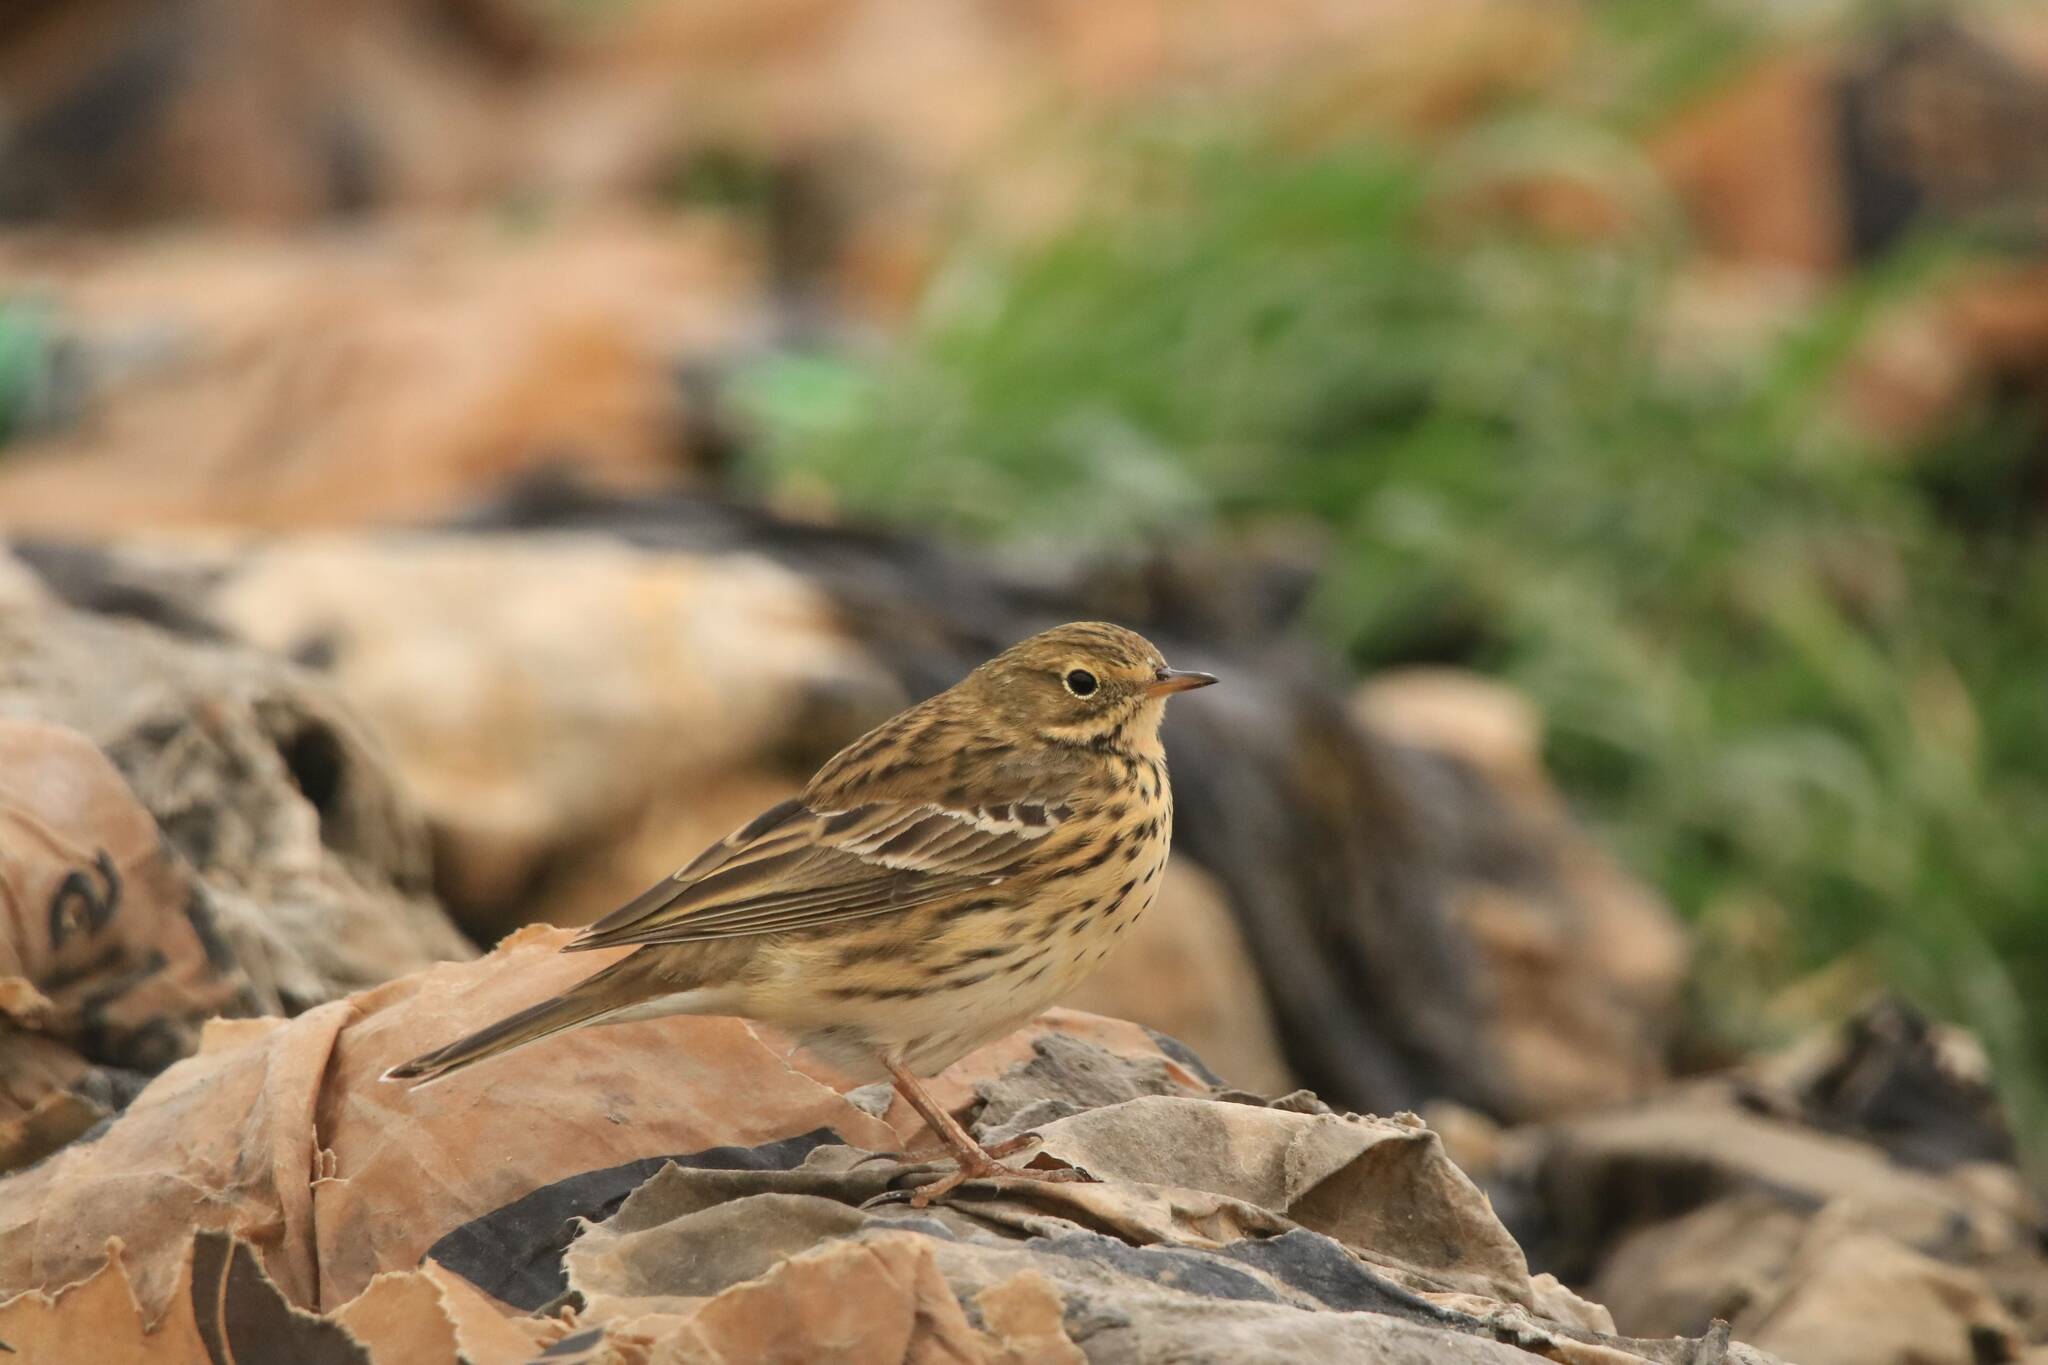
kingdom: Animalia
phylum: Chordata
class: Aves
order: Passeriformes
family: Motacillidae
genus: Anthus
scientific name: Anthus pratensis
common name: Meadow pipit
